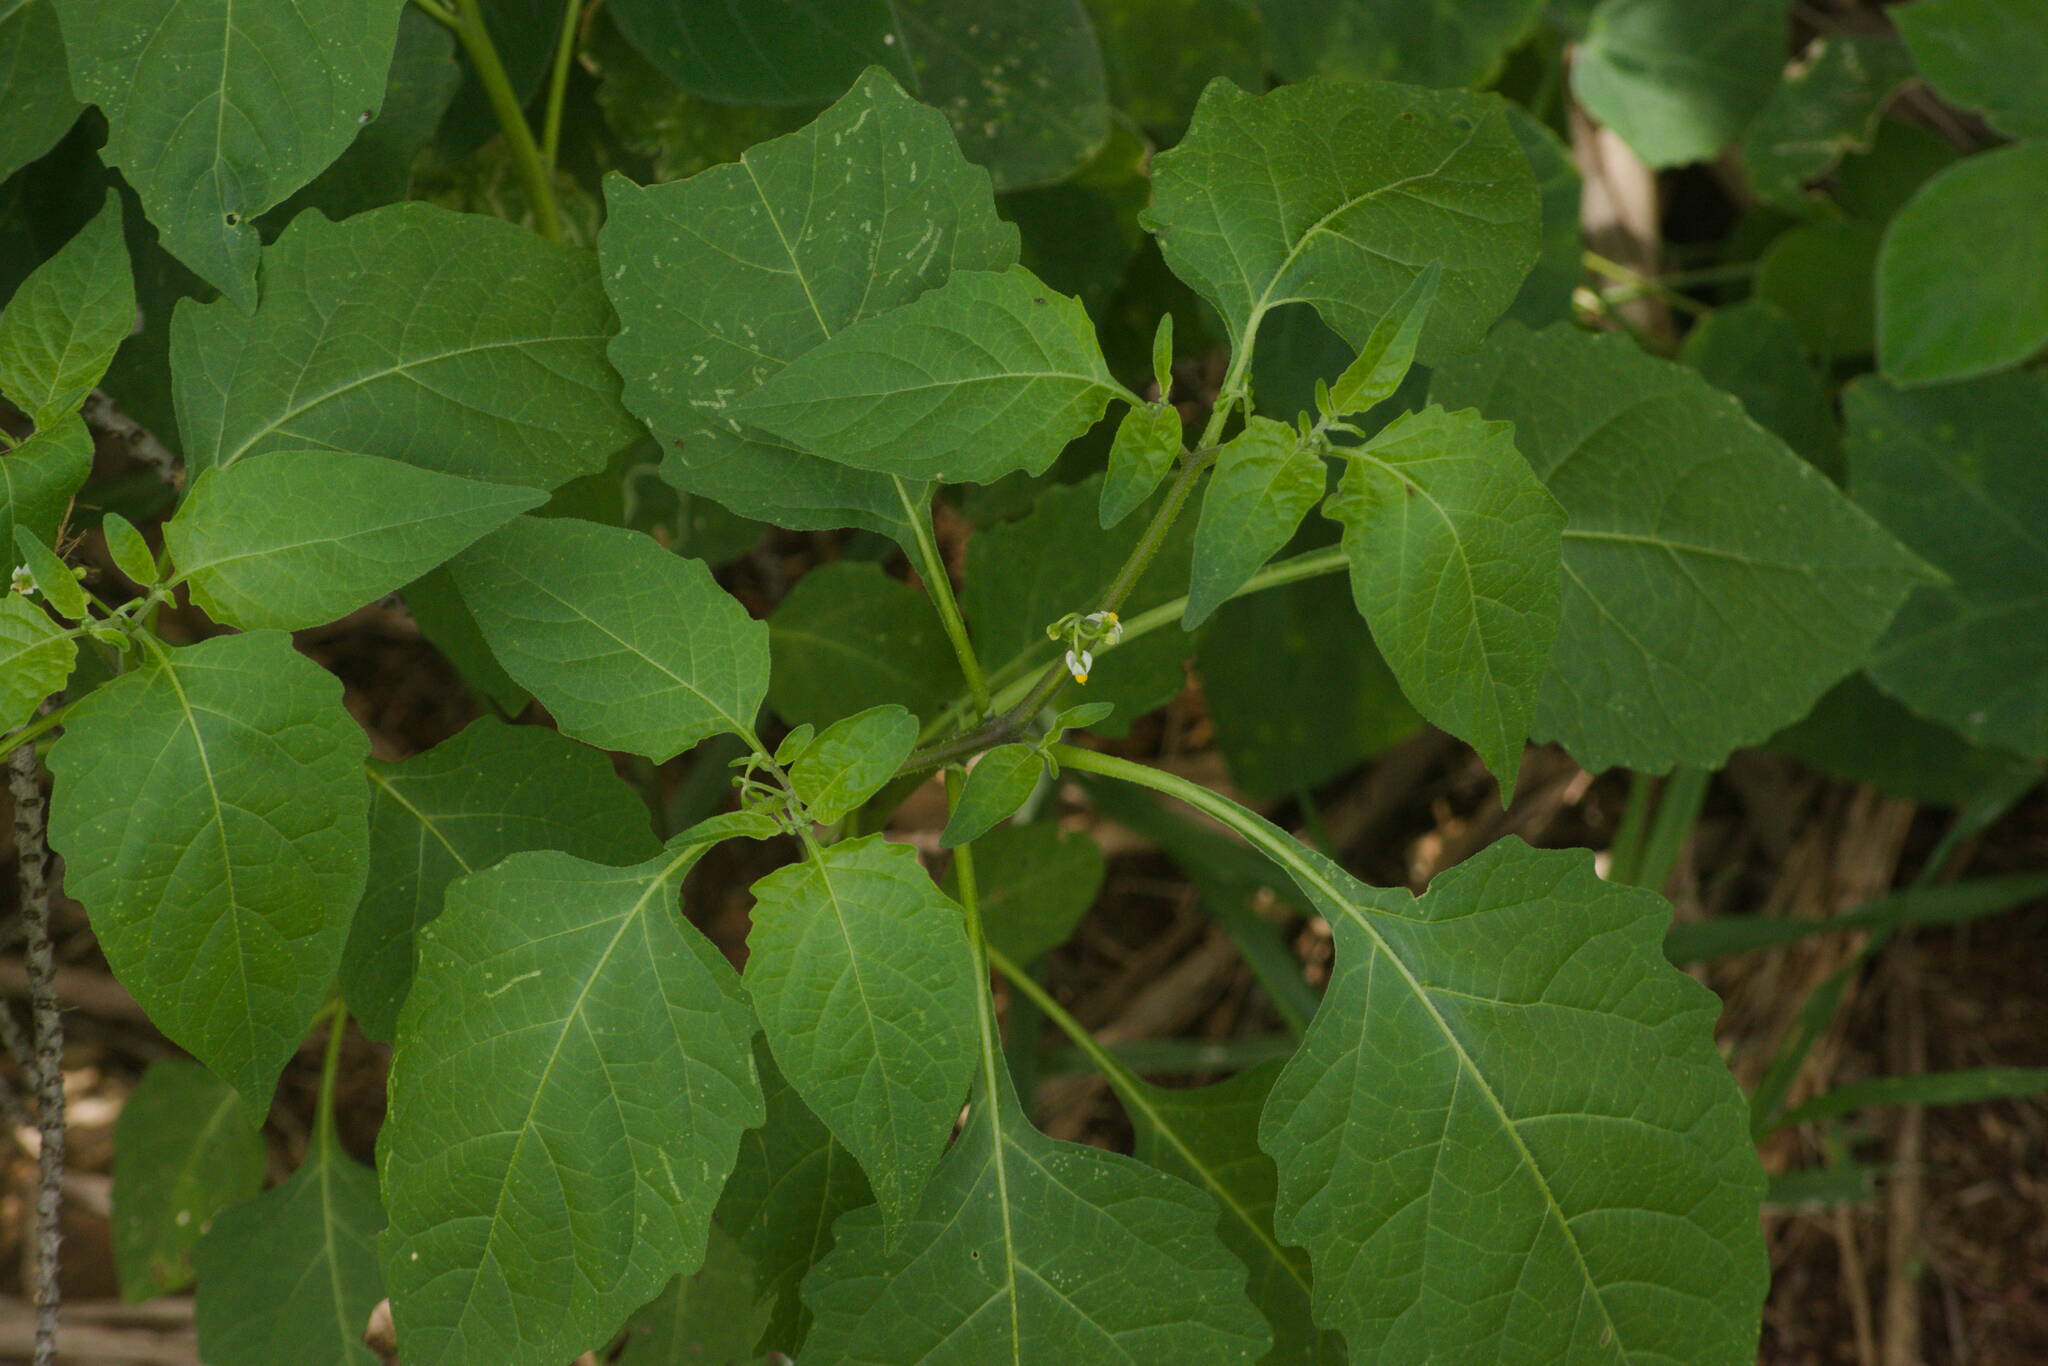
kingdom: Plantae
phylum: Tracheophyta
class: Magnoliopsida
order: Solanales
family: Solanaceae
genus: Solanum
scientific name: Solanum americanum
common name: American black nightshade
